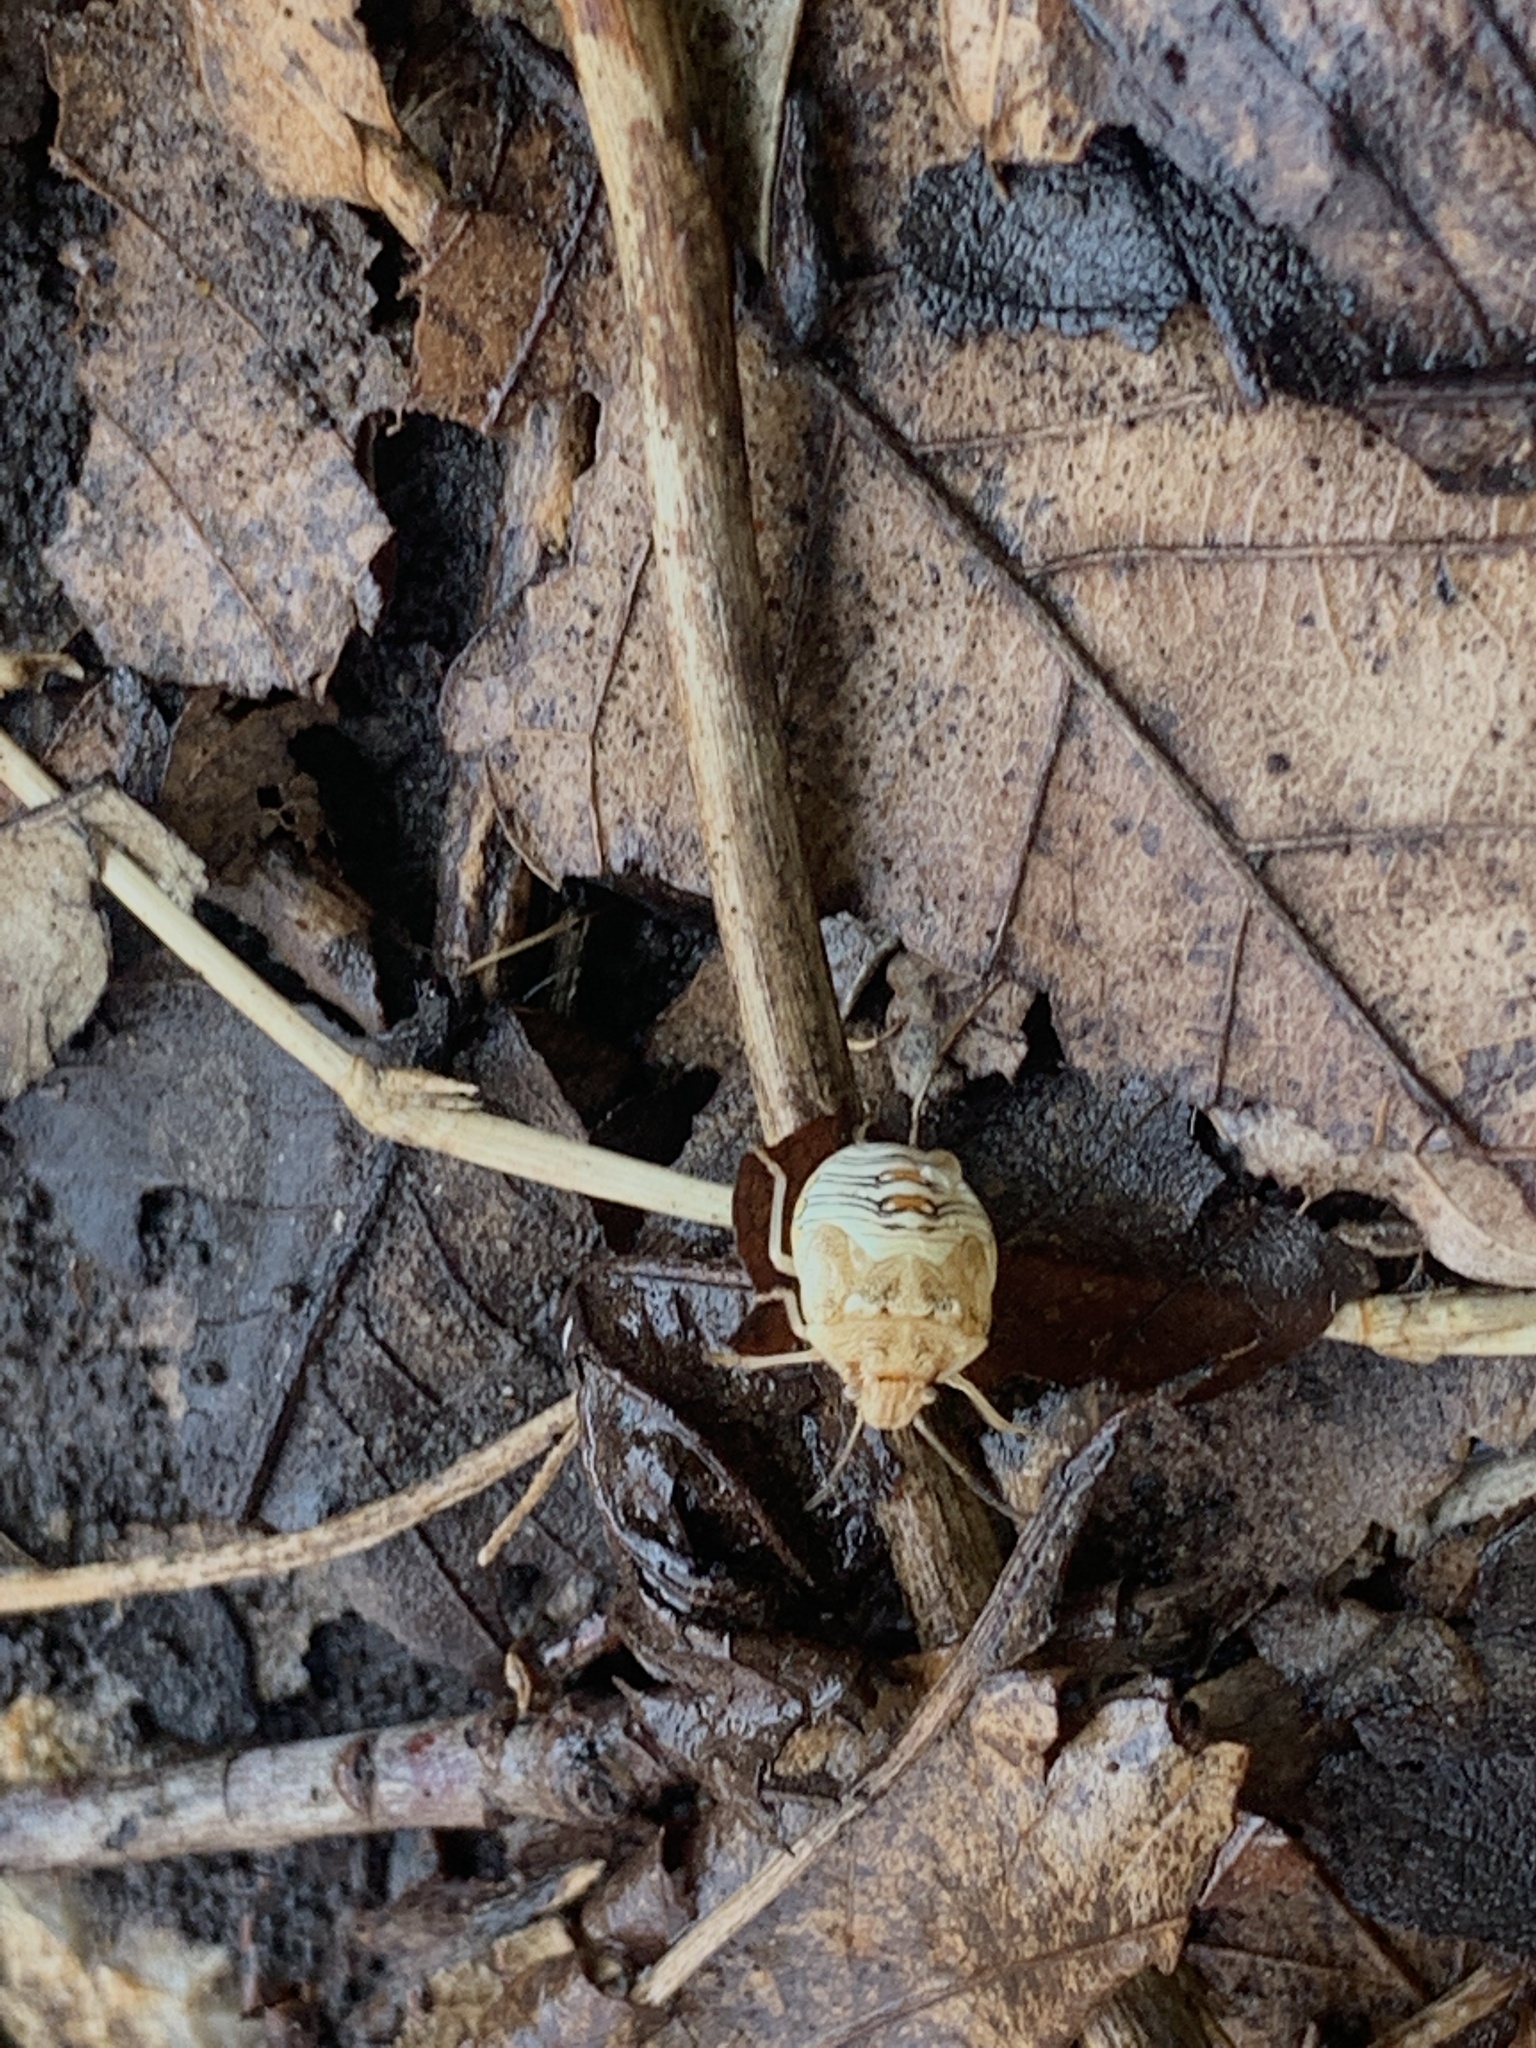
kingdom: Animalia
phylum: Arthropoda
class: Insecta
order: Hemiptera
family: Pentatomidae
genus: Thyanta
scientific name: Thyanta accerra
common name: Stink bug
